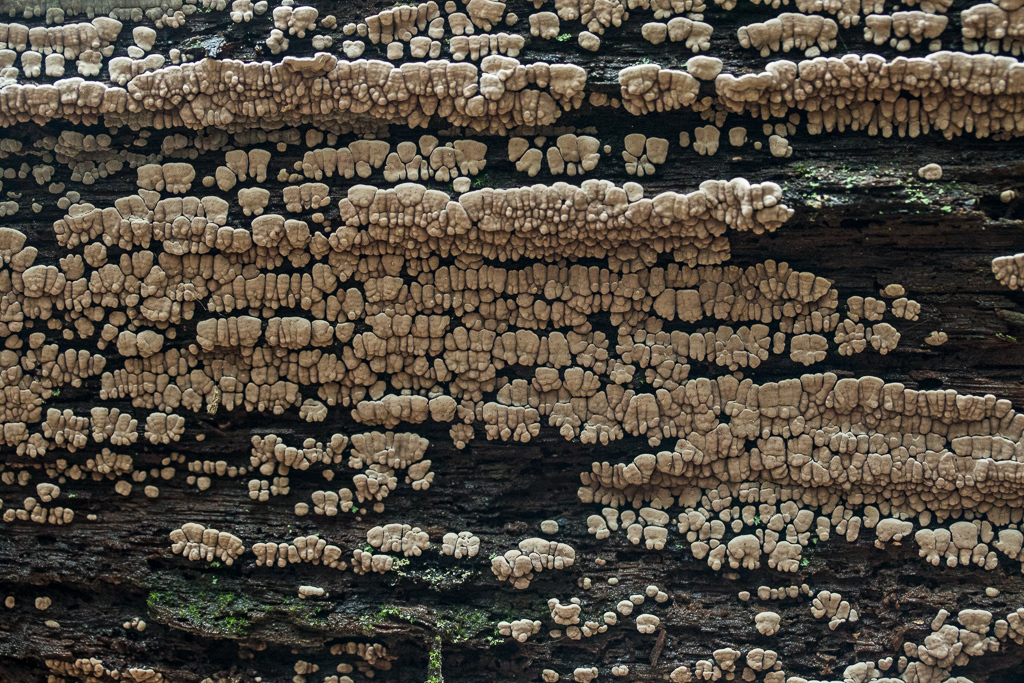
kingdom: Fungi
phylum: Basidiomycota
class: Agaricomycetes
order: Russulales
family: Stereaceae
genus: Xylobolus
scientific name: Xylobolus frustulatus
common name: Ceramic parchment
